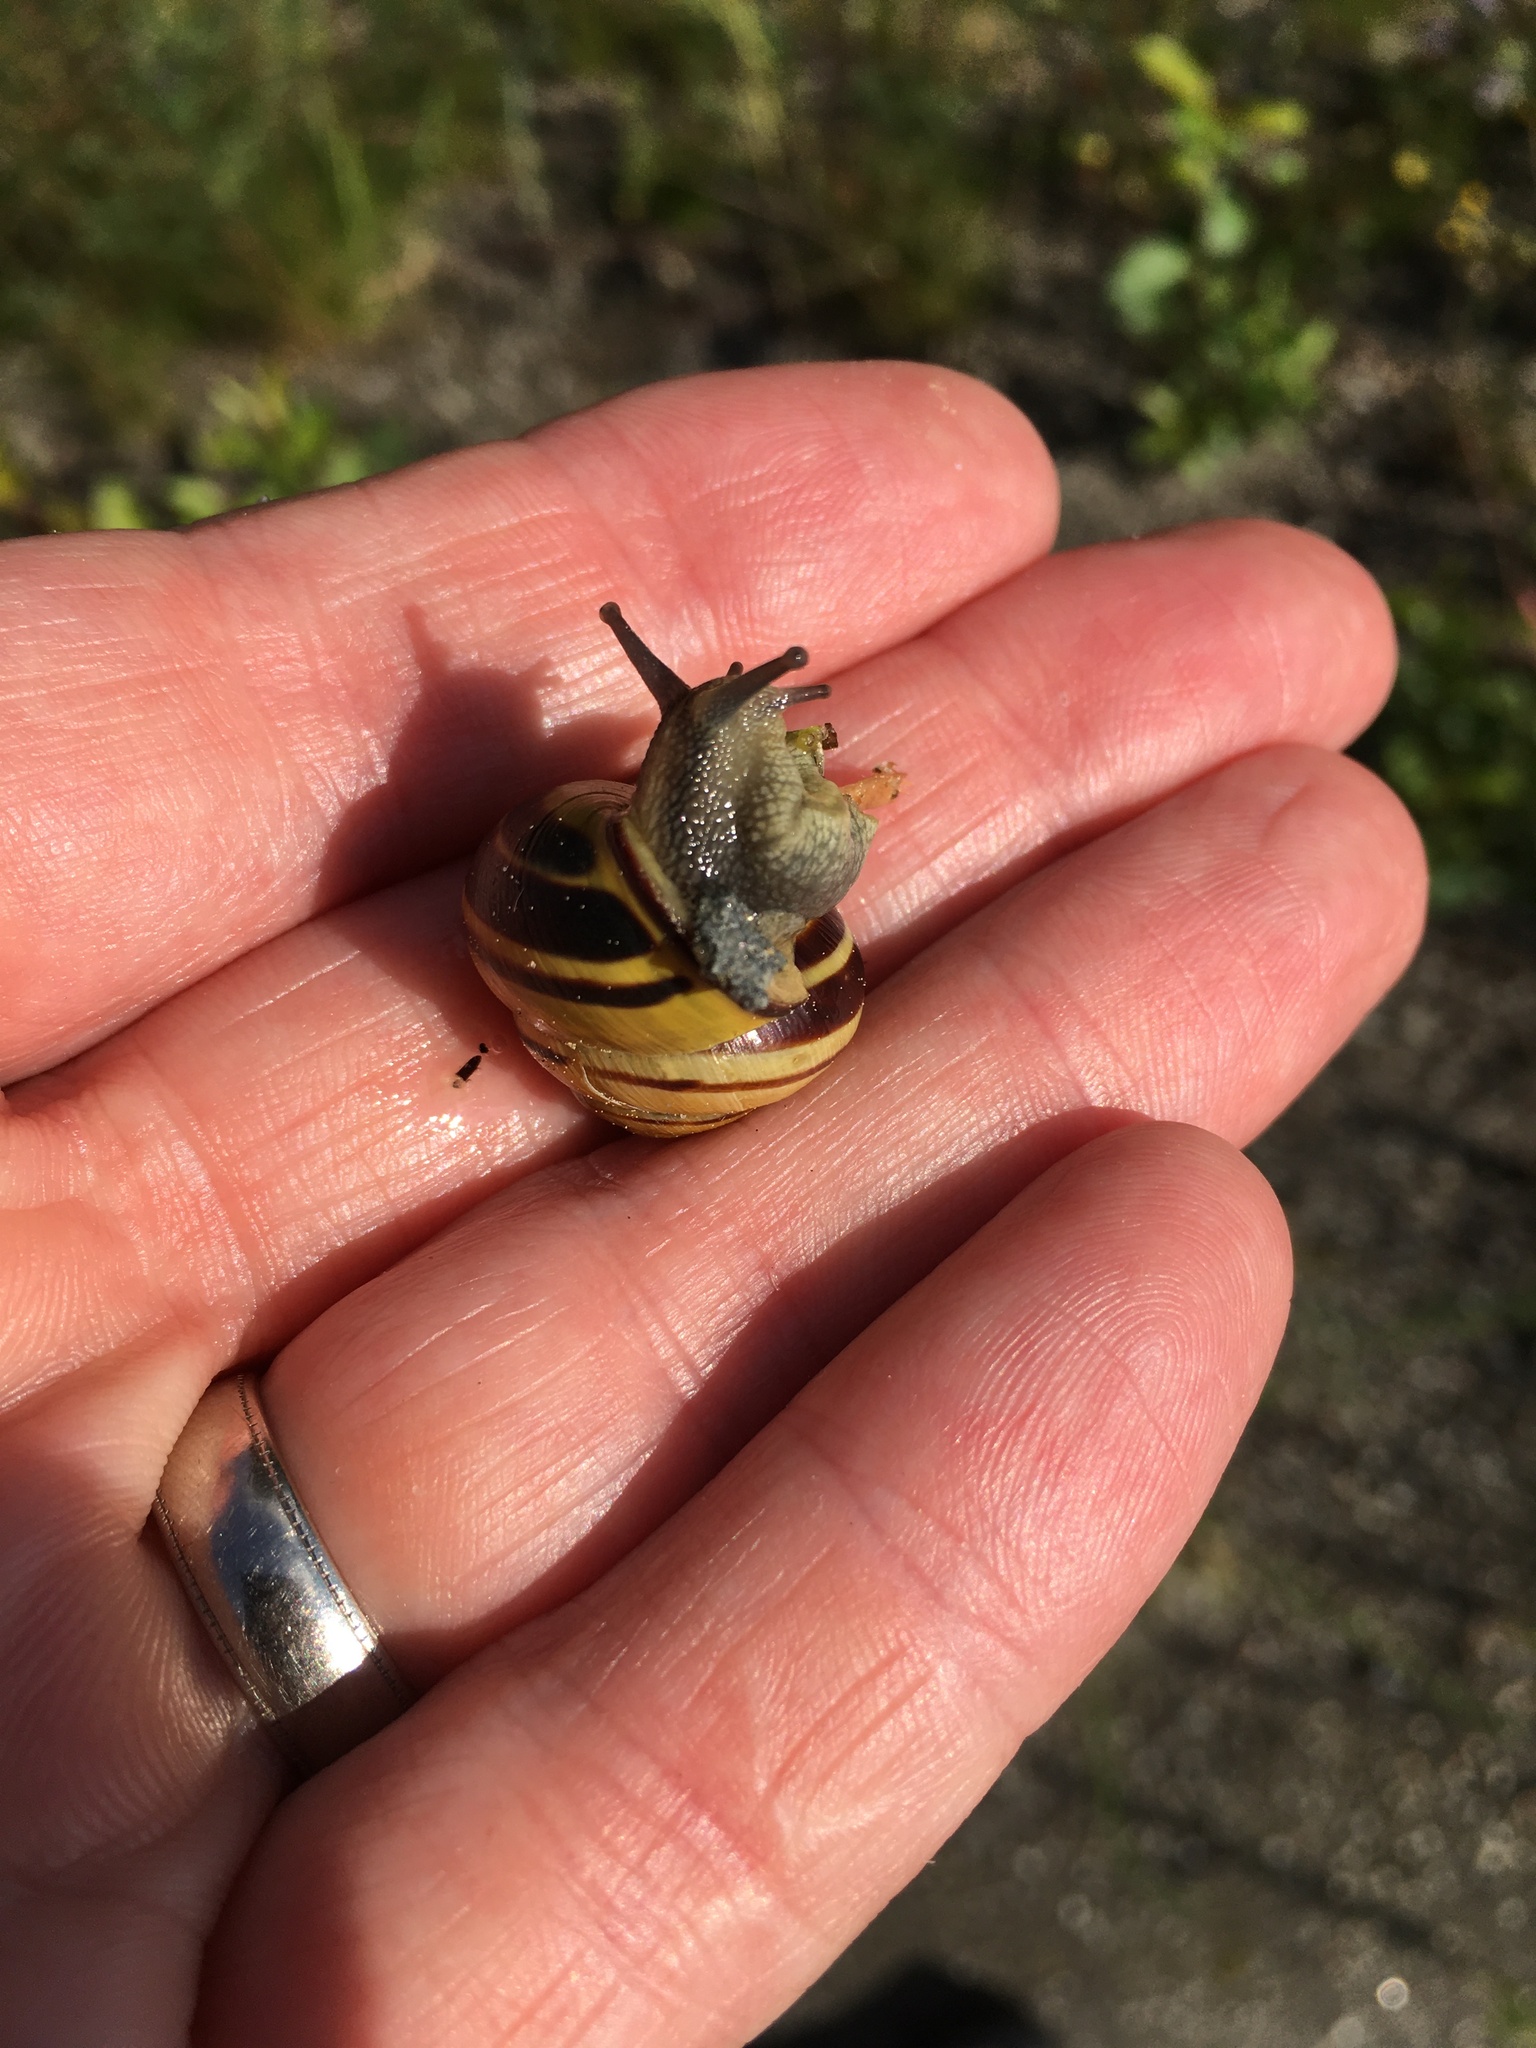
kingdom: Animalia
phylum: Mollusca
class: Gastropoda
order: Stylommatophora
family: Helicidae
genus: Cepaea
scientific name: Cepaea nemoralis
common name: Grovesnail
